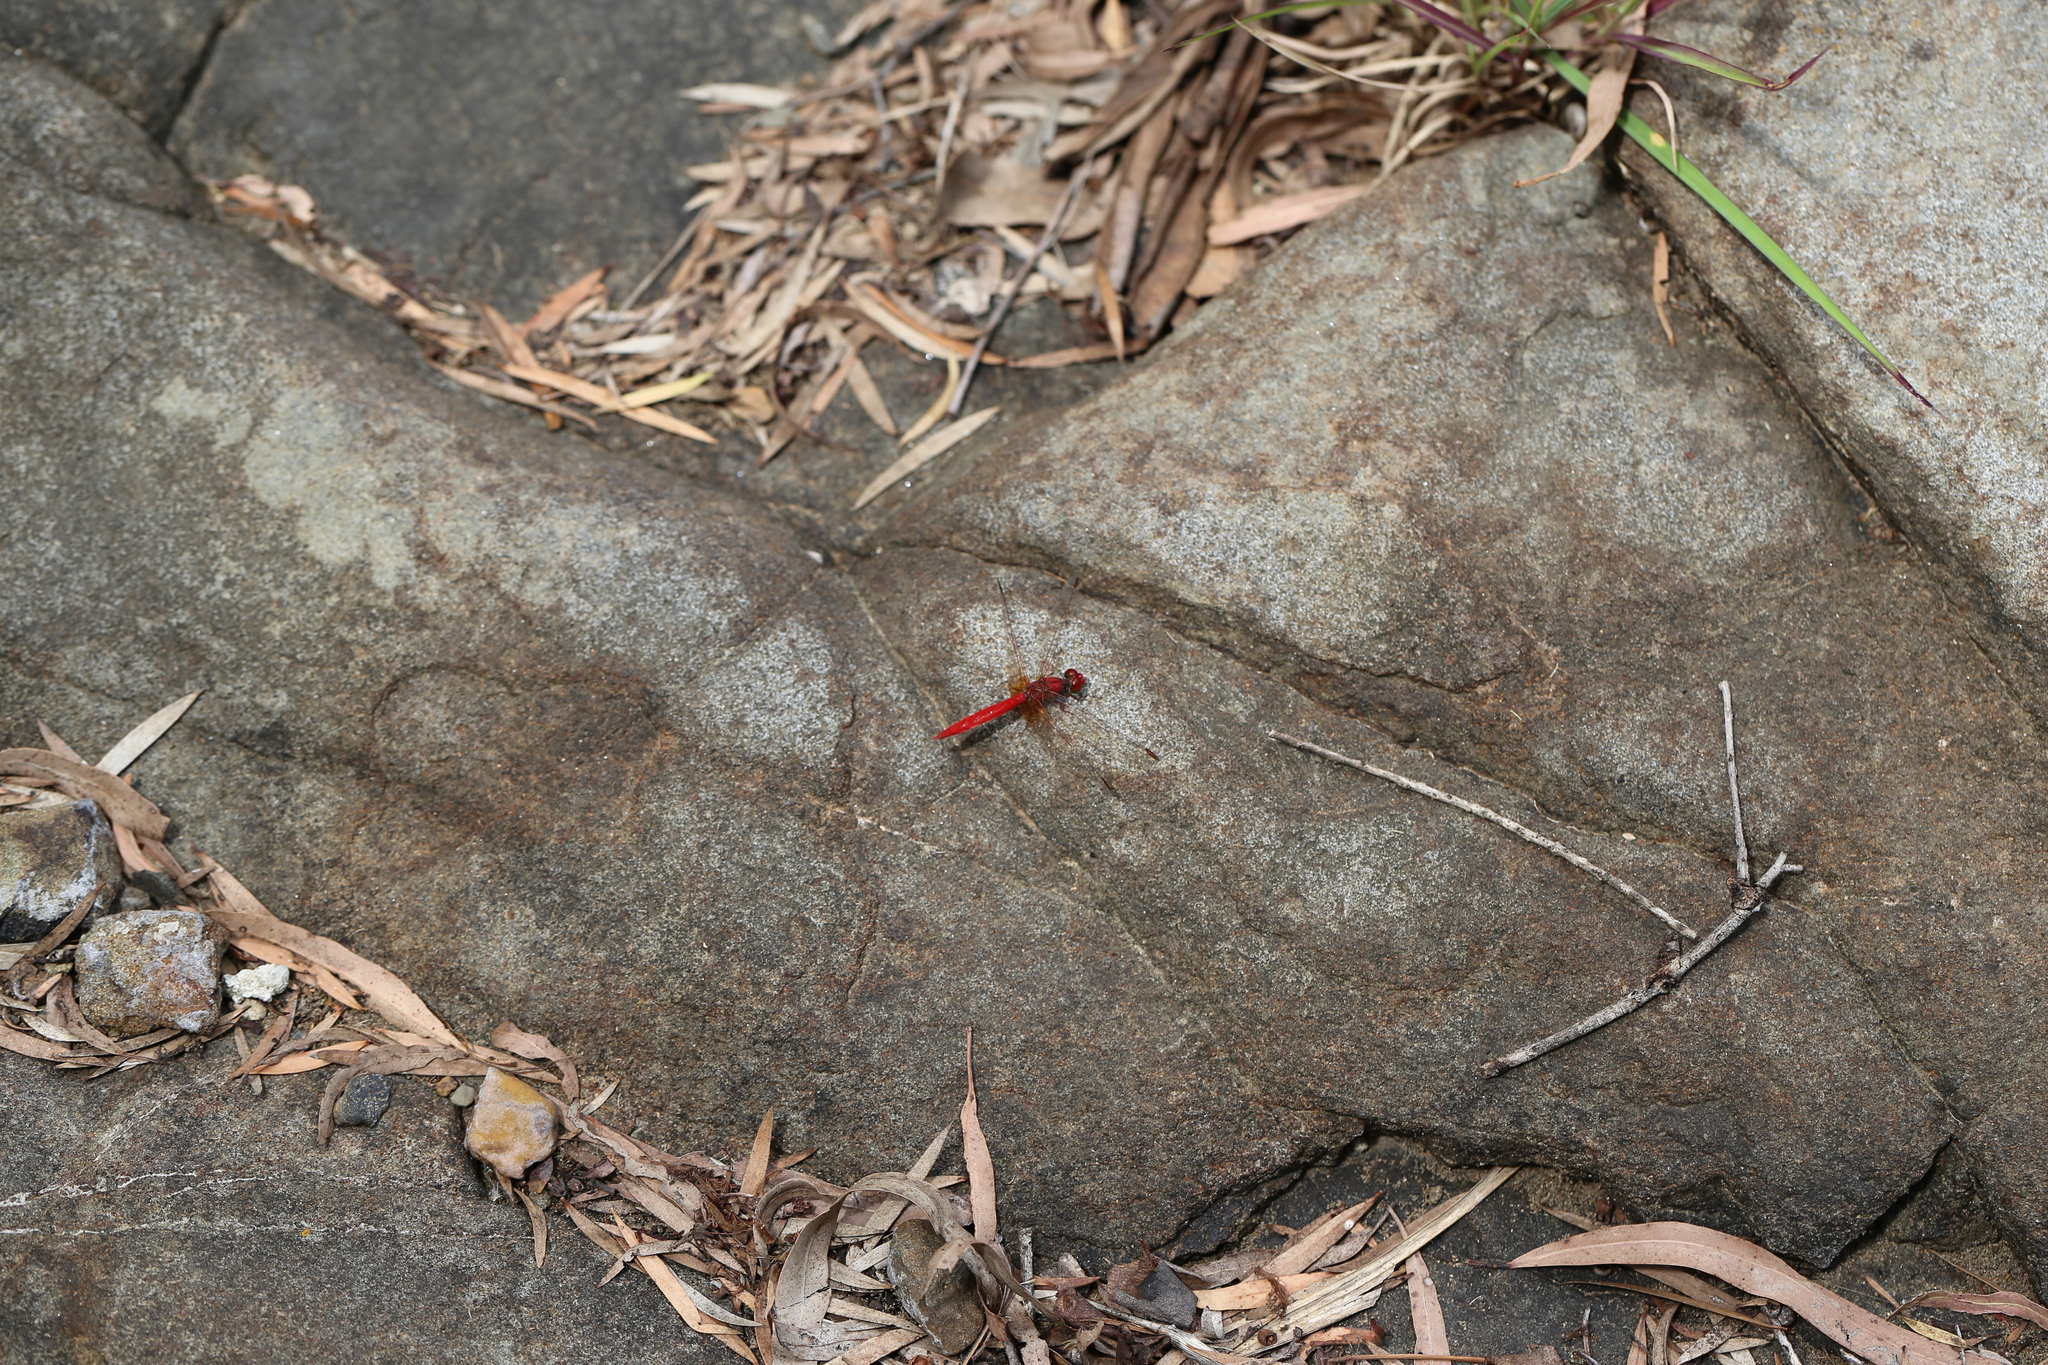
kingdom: Animalia
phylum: Arthropoda
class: Insecta
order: Odonata
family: Libellulidae
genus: Diplacodes
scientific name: Diplacodes haematodes
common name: Scarlet percher
